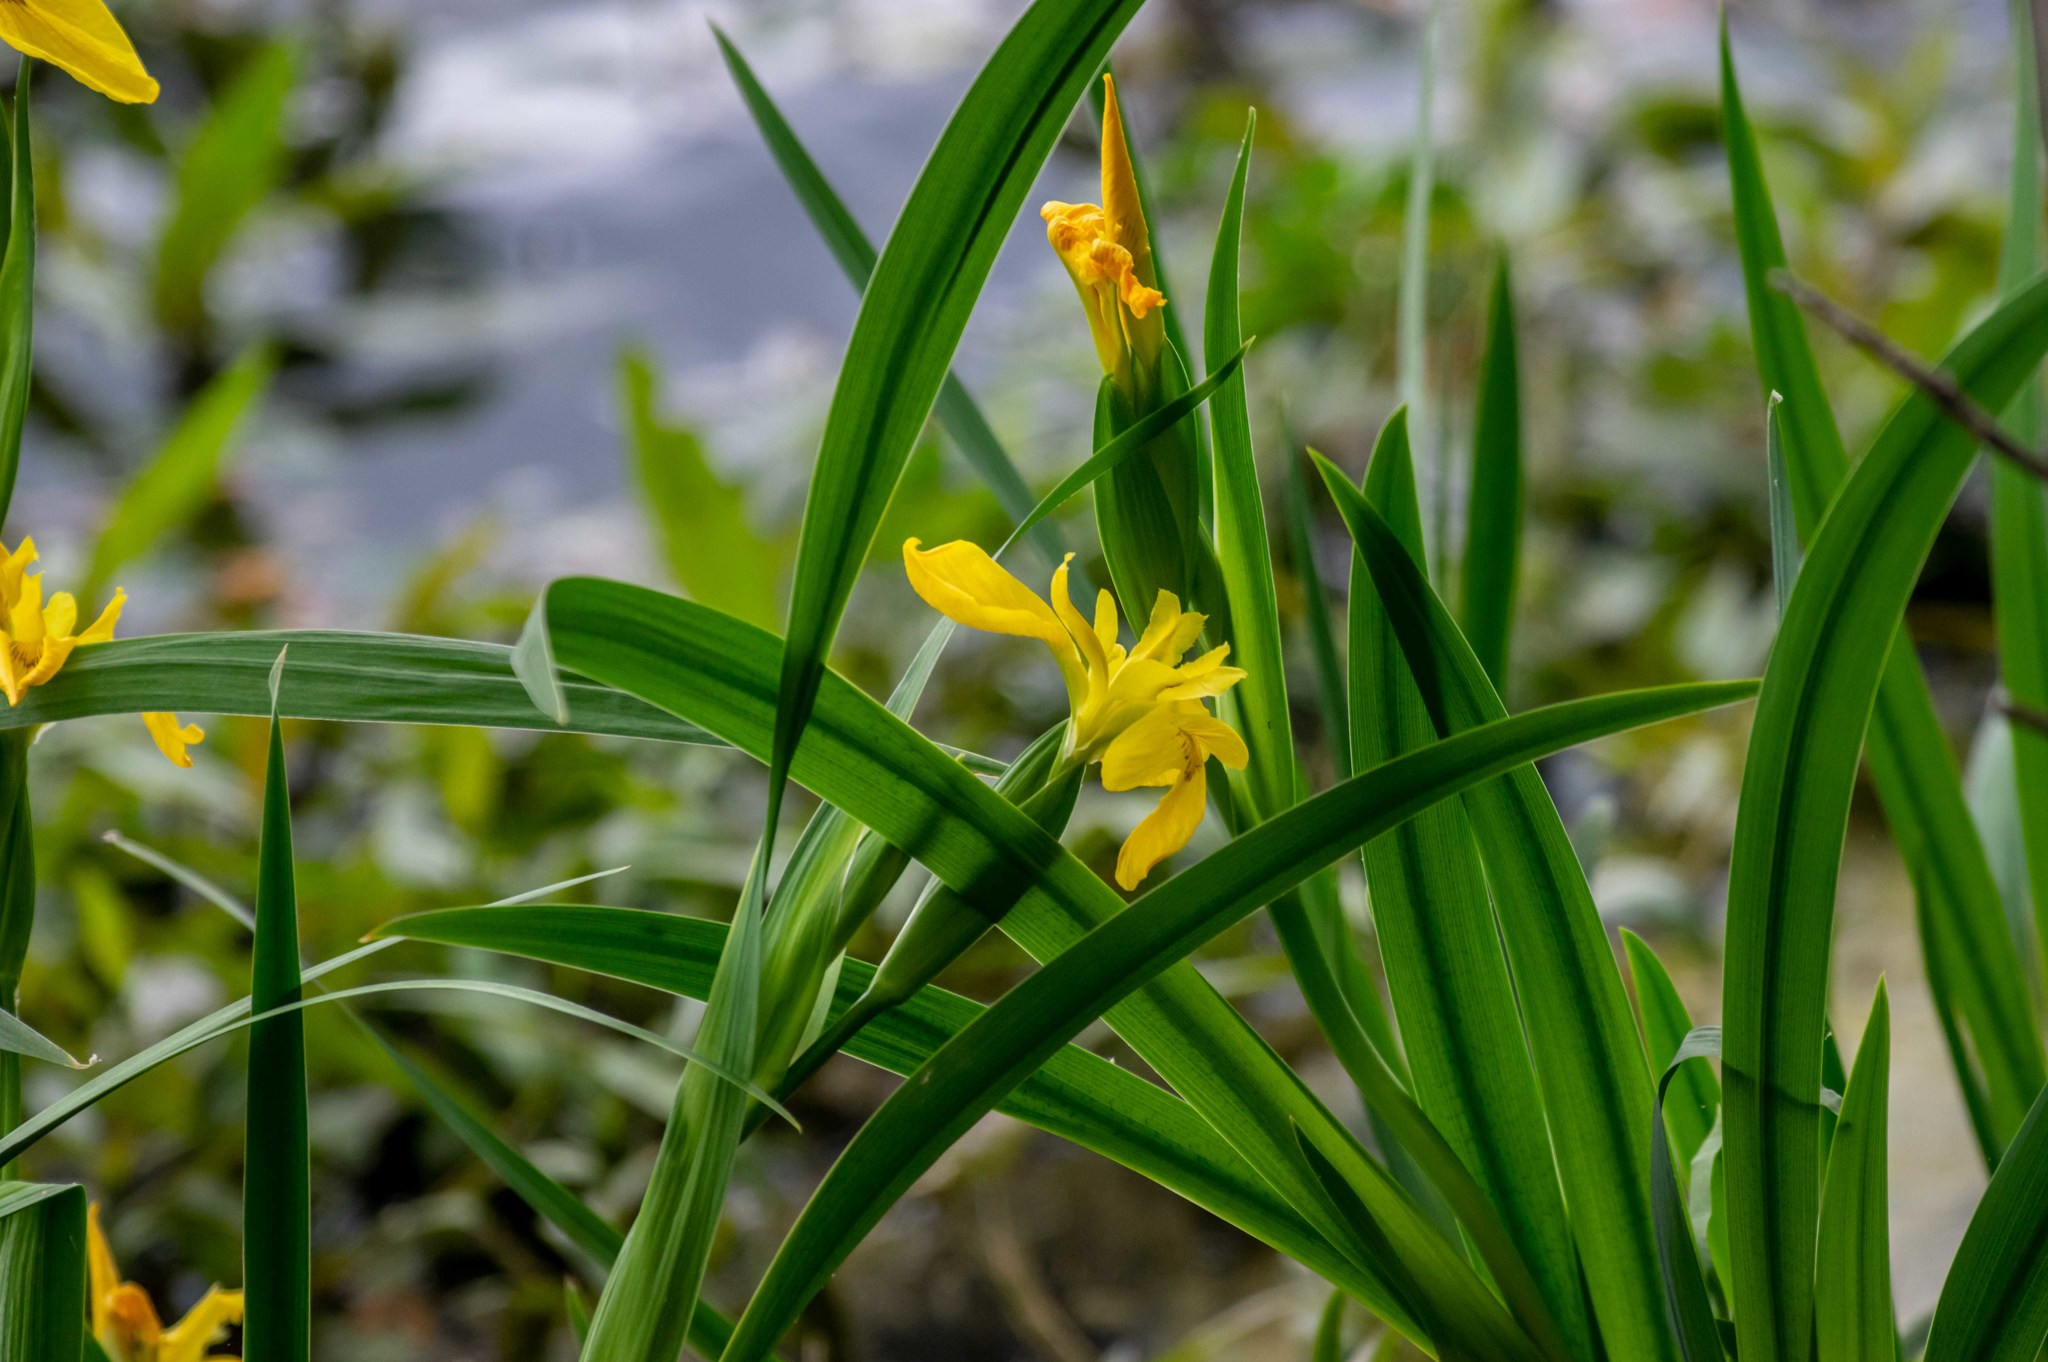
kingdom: Plantae
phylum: Tracheophyta
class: Liliopsida
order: Asparagales
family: Iridaceae
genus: Iris
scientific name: Iris pseudacorus
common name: Yellow flag
